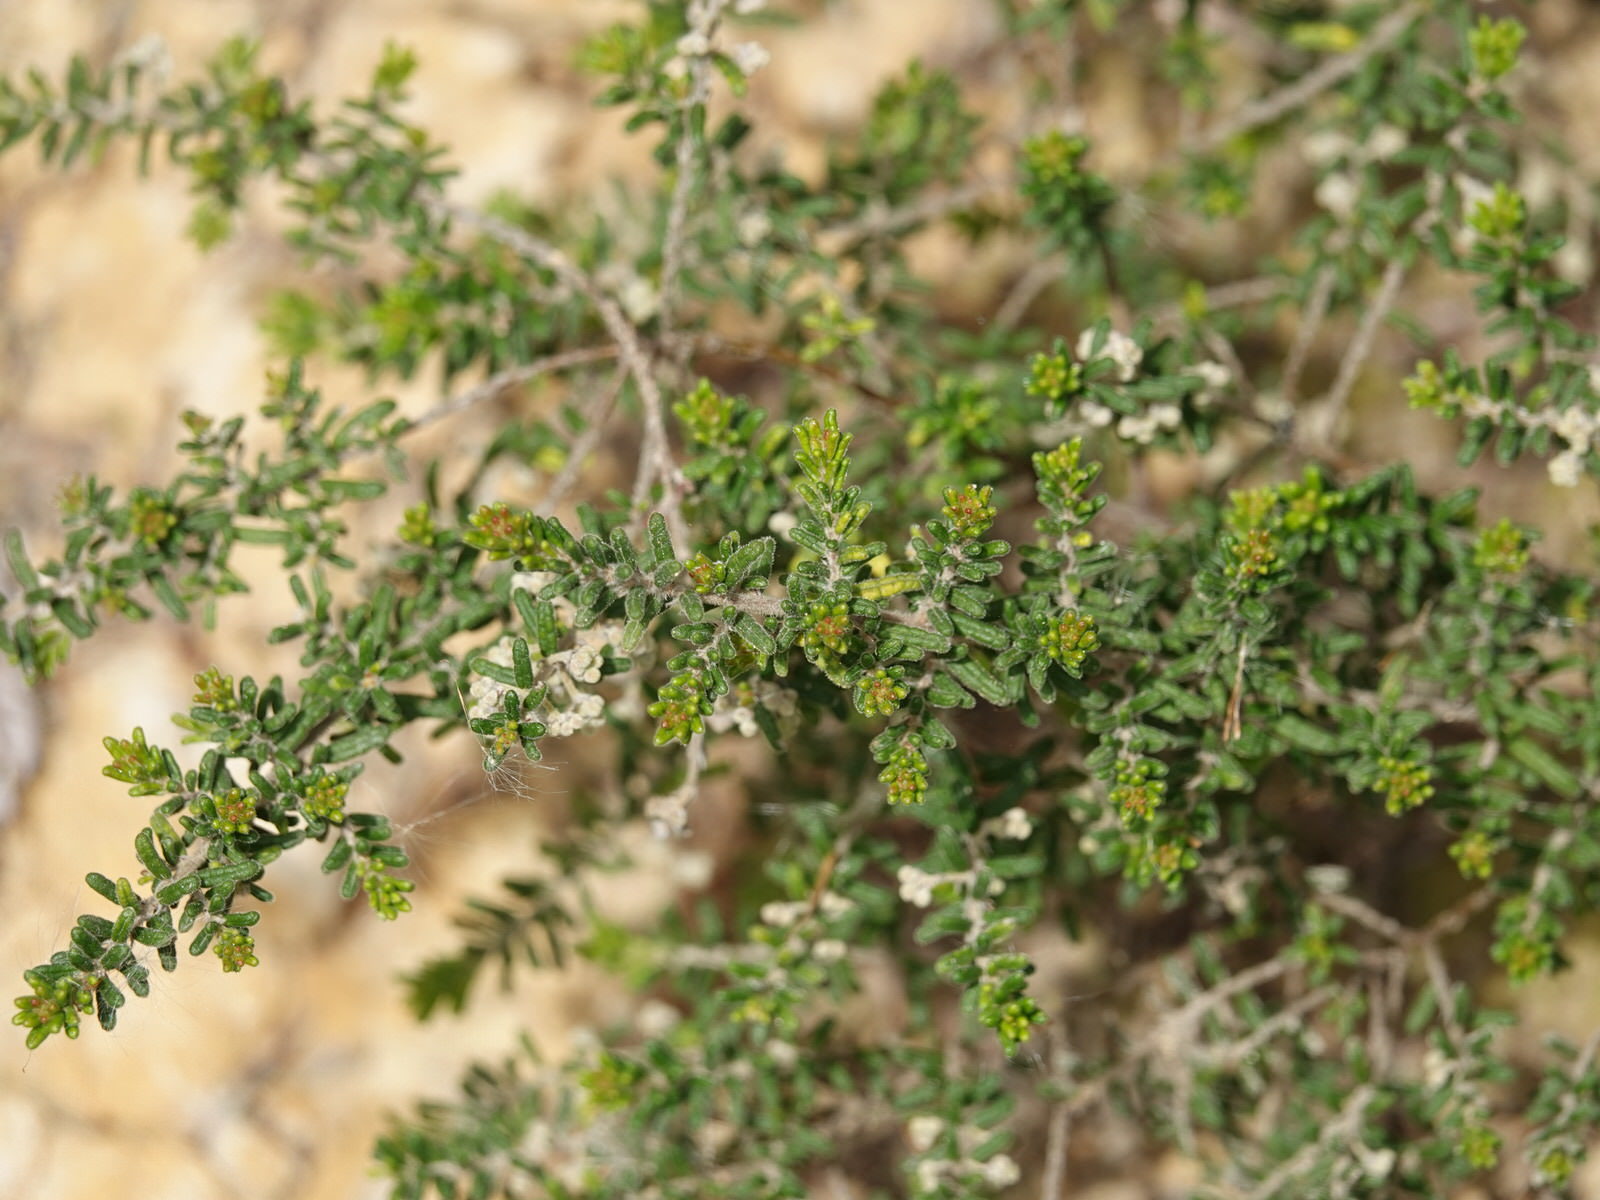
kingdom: Plantae
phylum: Tracheophyta
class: Magnoliopsida
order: Rosales
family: Rhamnaceae
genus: Pomaderris
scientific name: Pomaderris amoena
